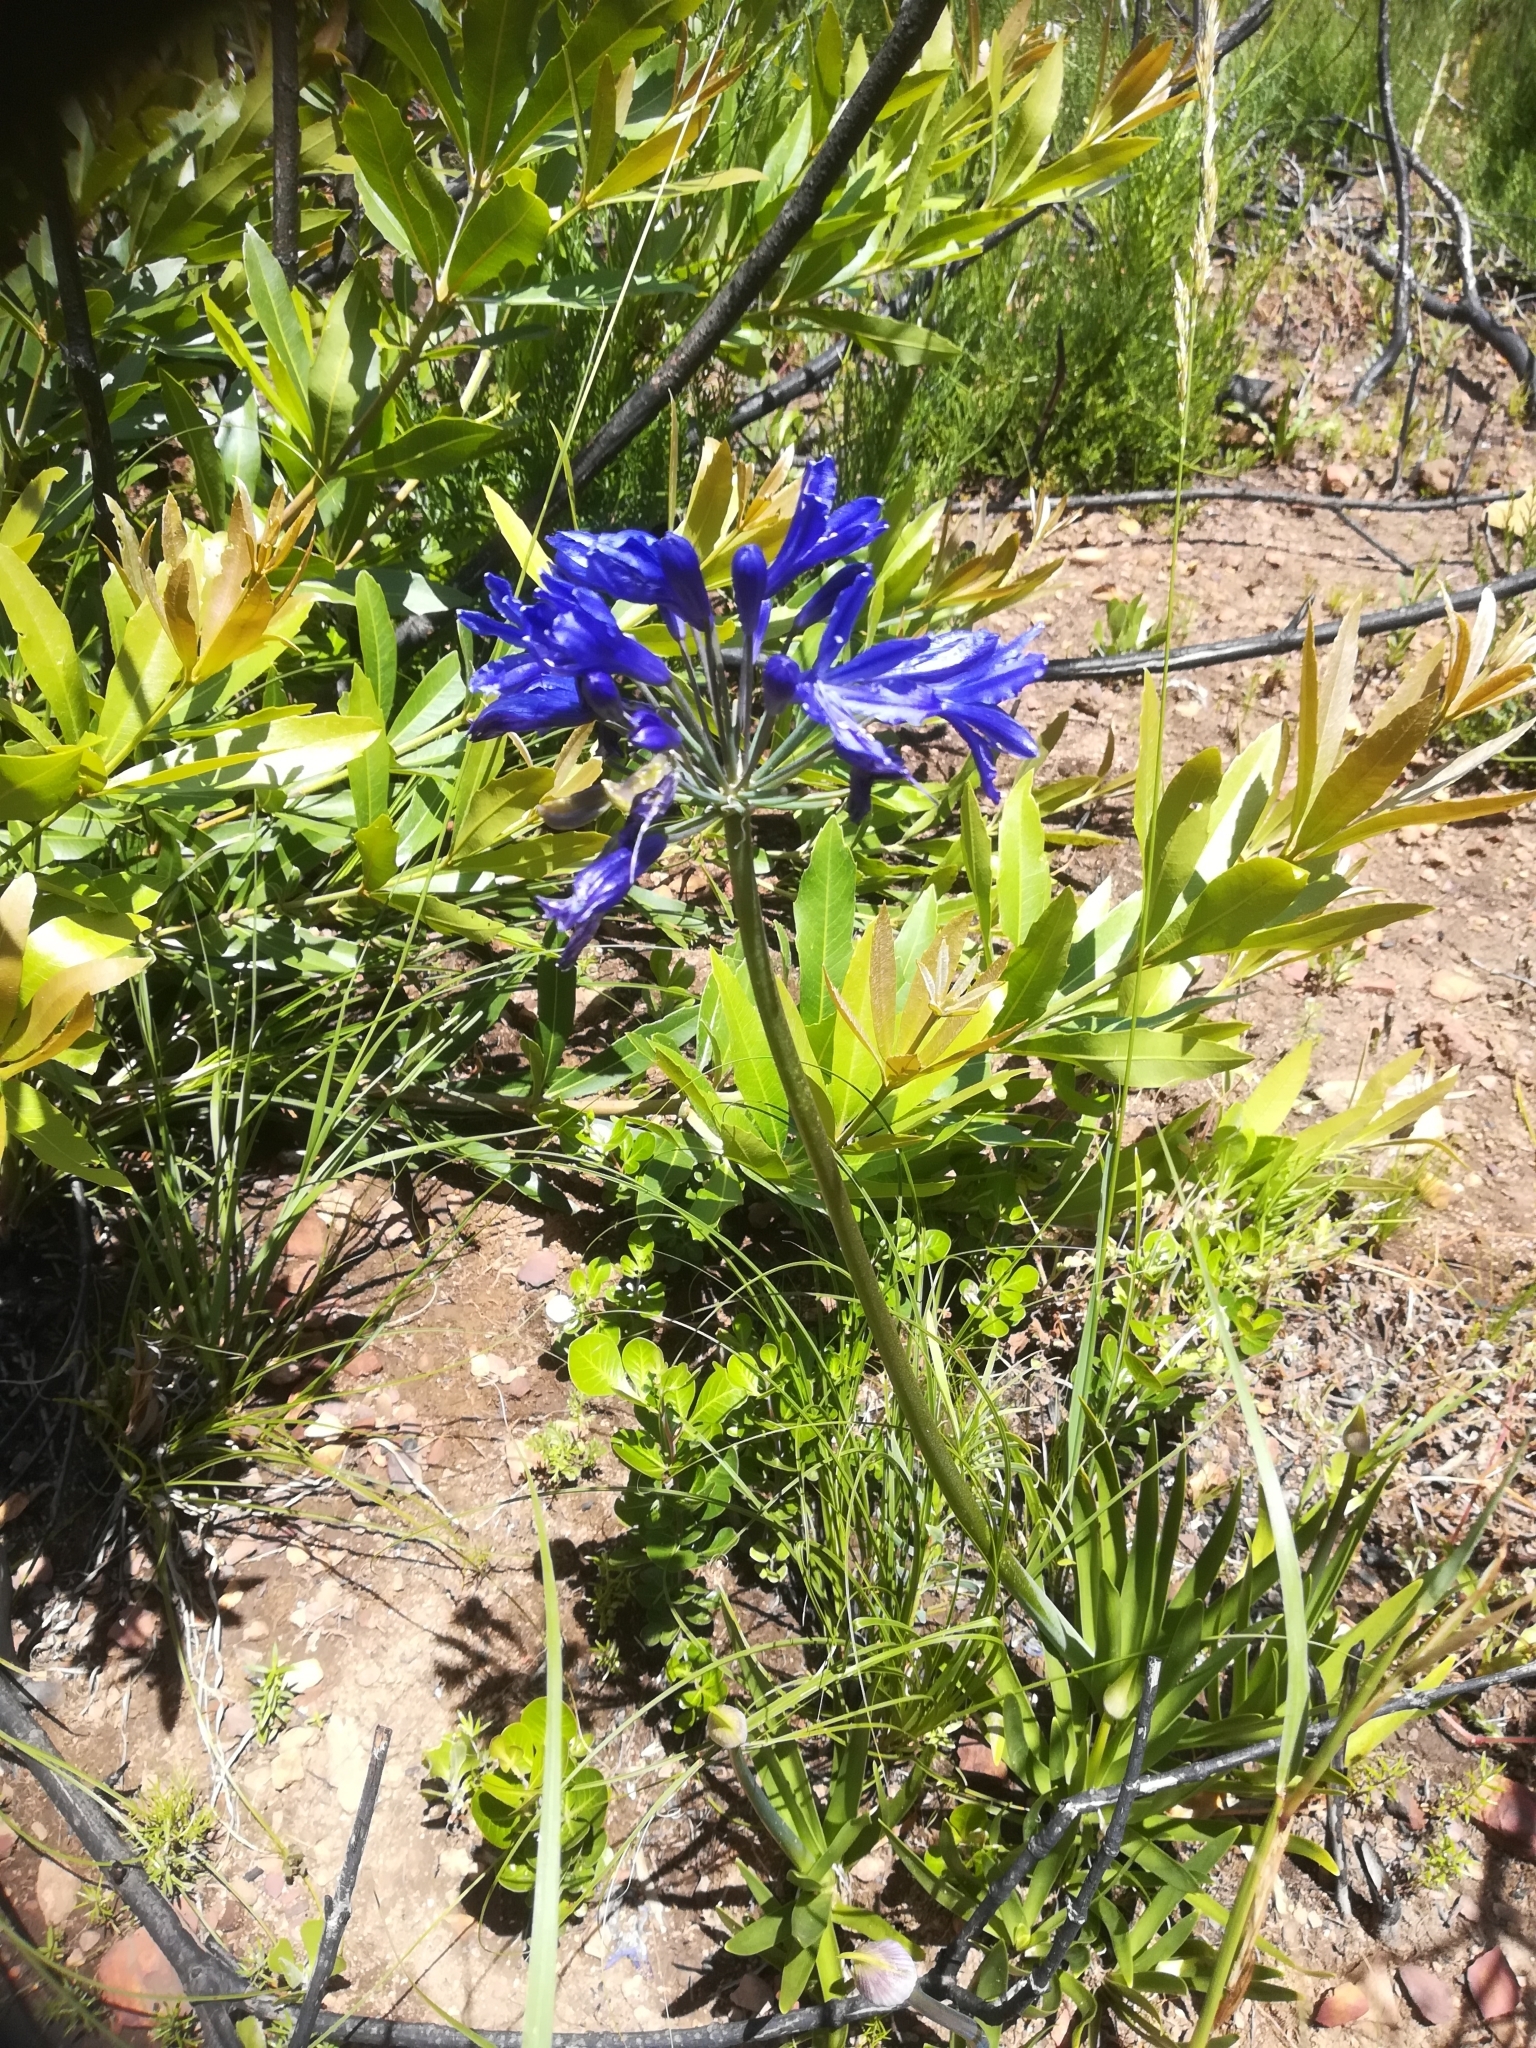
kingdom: Plantae
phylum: Tracheophyta
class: Liliopsida
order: Asparagales
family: Amaryllidaceae
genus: Agapanthus
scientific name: Agapanthus africanus
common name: Lily-of-the-nile
